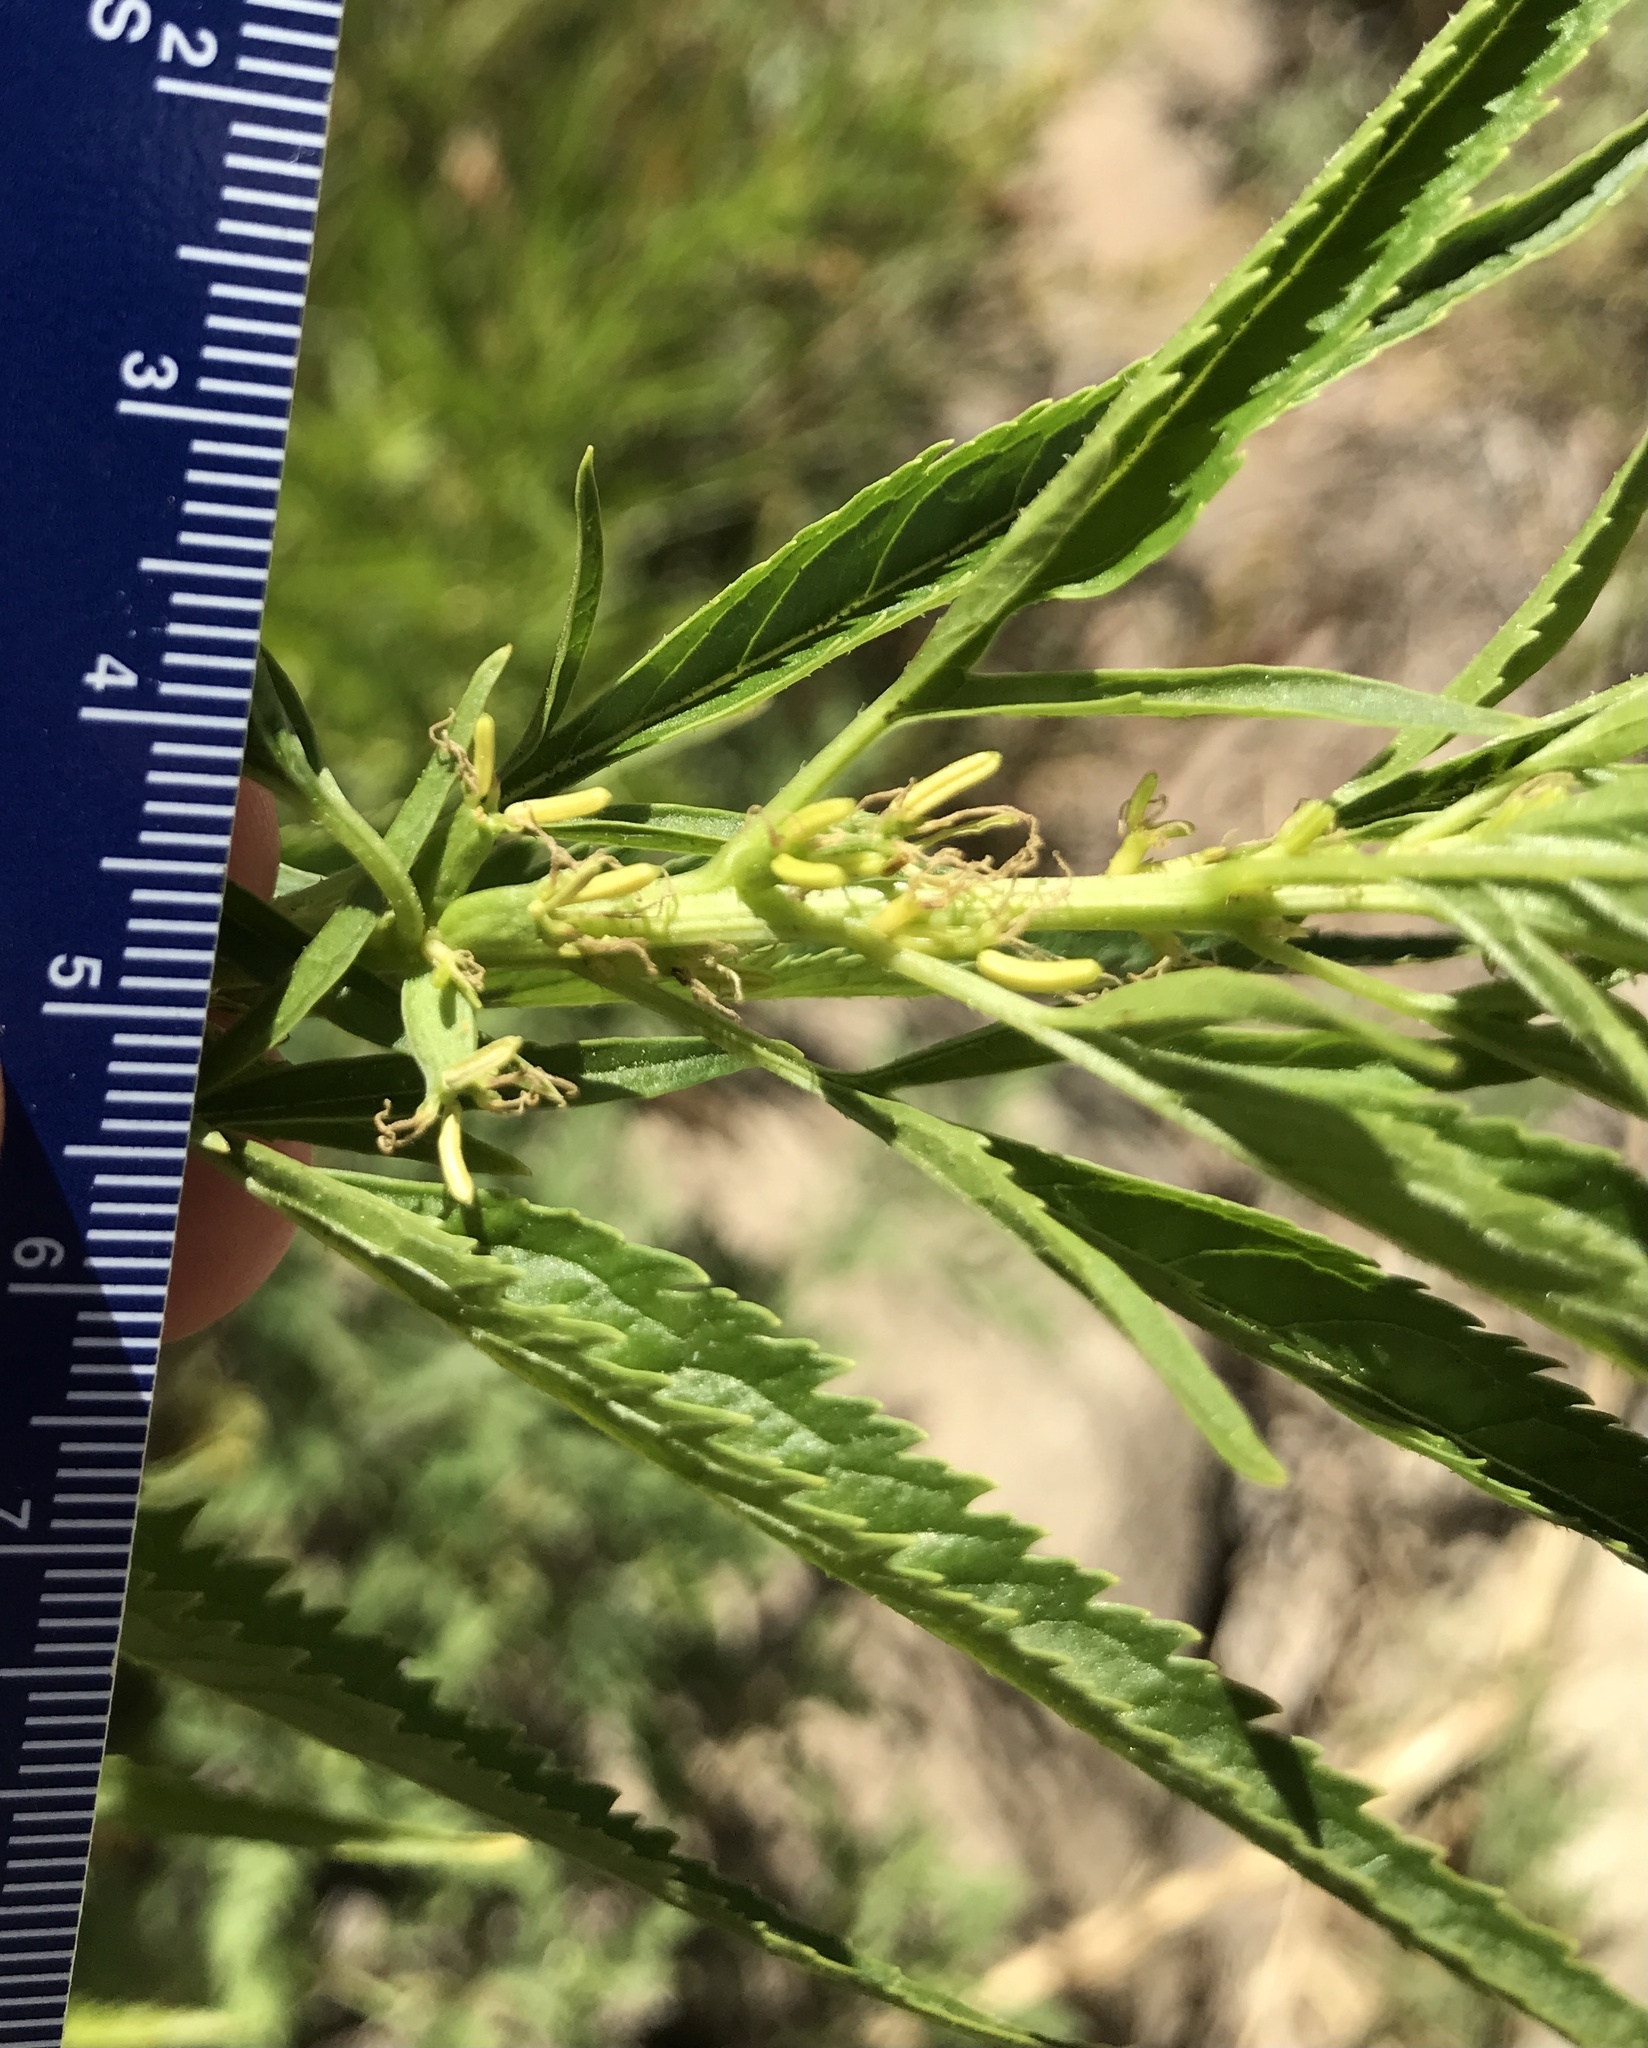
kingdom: Plantae
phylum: Tracheophyta
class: Magnoliopsida
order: Cucurbitales
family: Datiscaceae
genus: Datisca
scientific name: Datisca glomerata
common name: Durango-root
